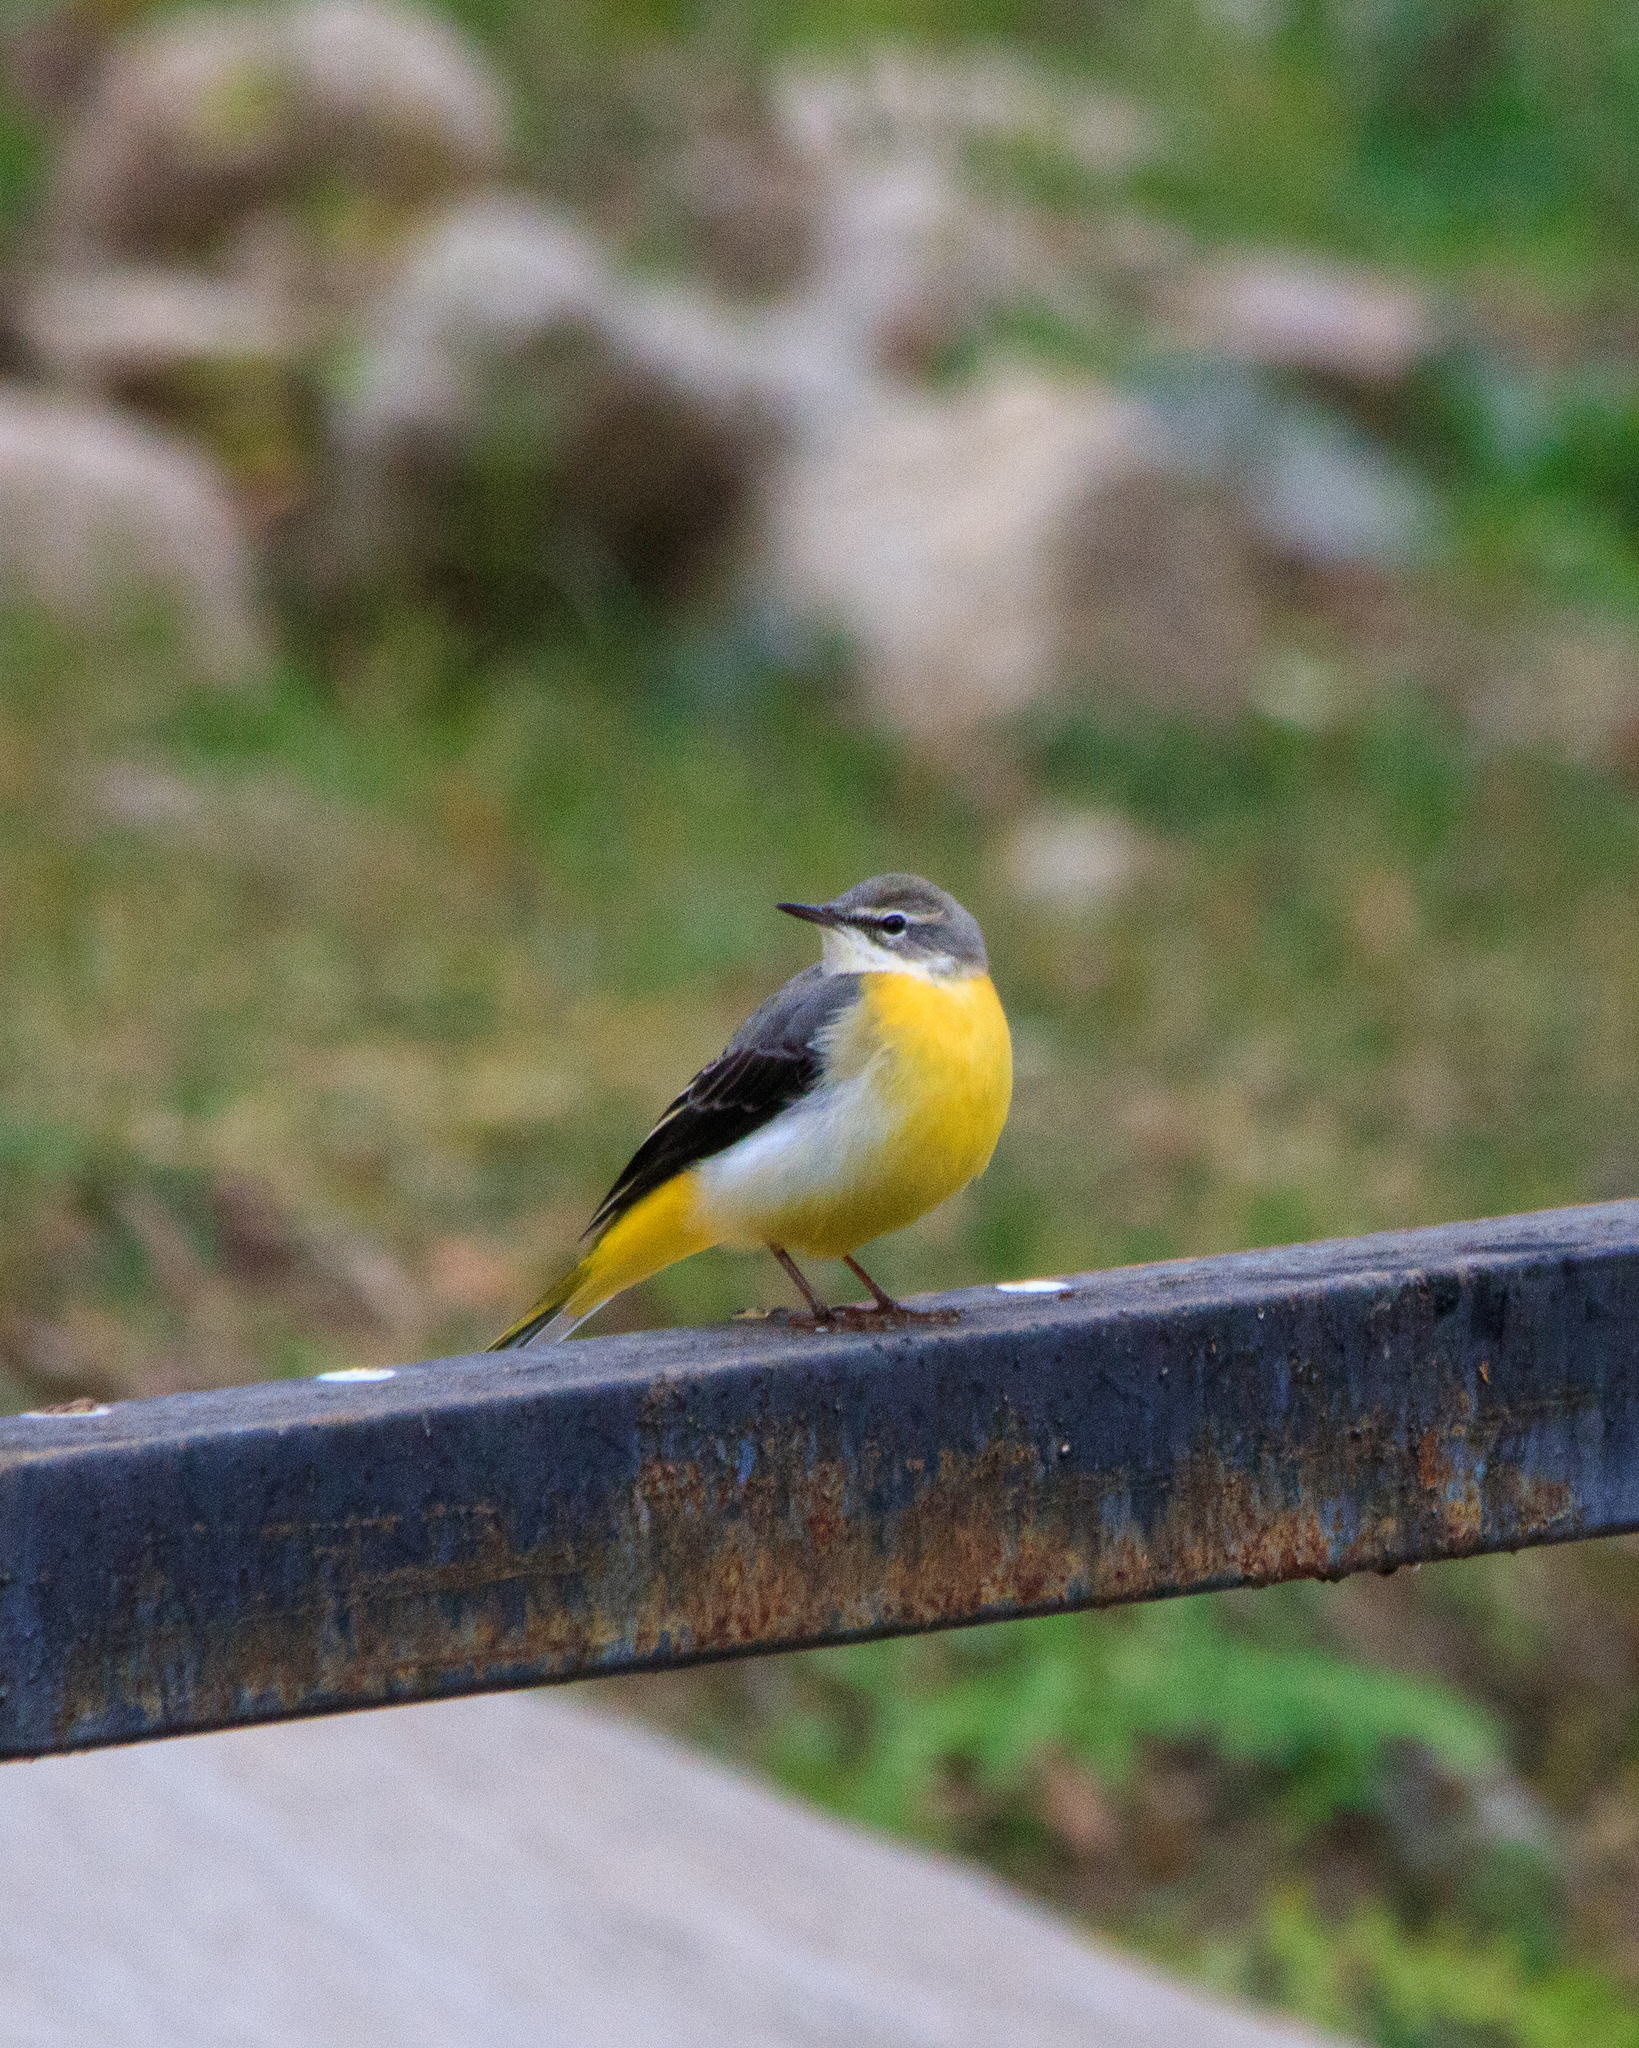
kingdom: Animalia
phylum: Chordata
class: Aves
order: Passeriformes
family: Motacillidae
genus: Motacilla
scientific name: Motacilla cinerea
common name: Grey wagtail
